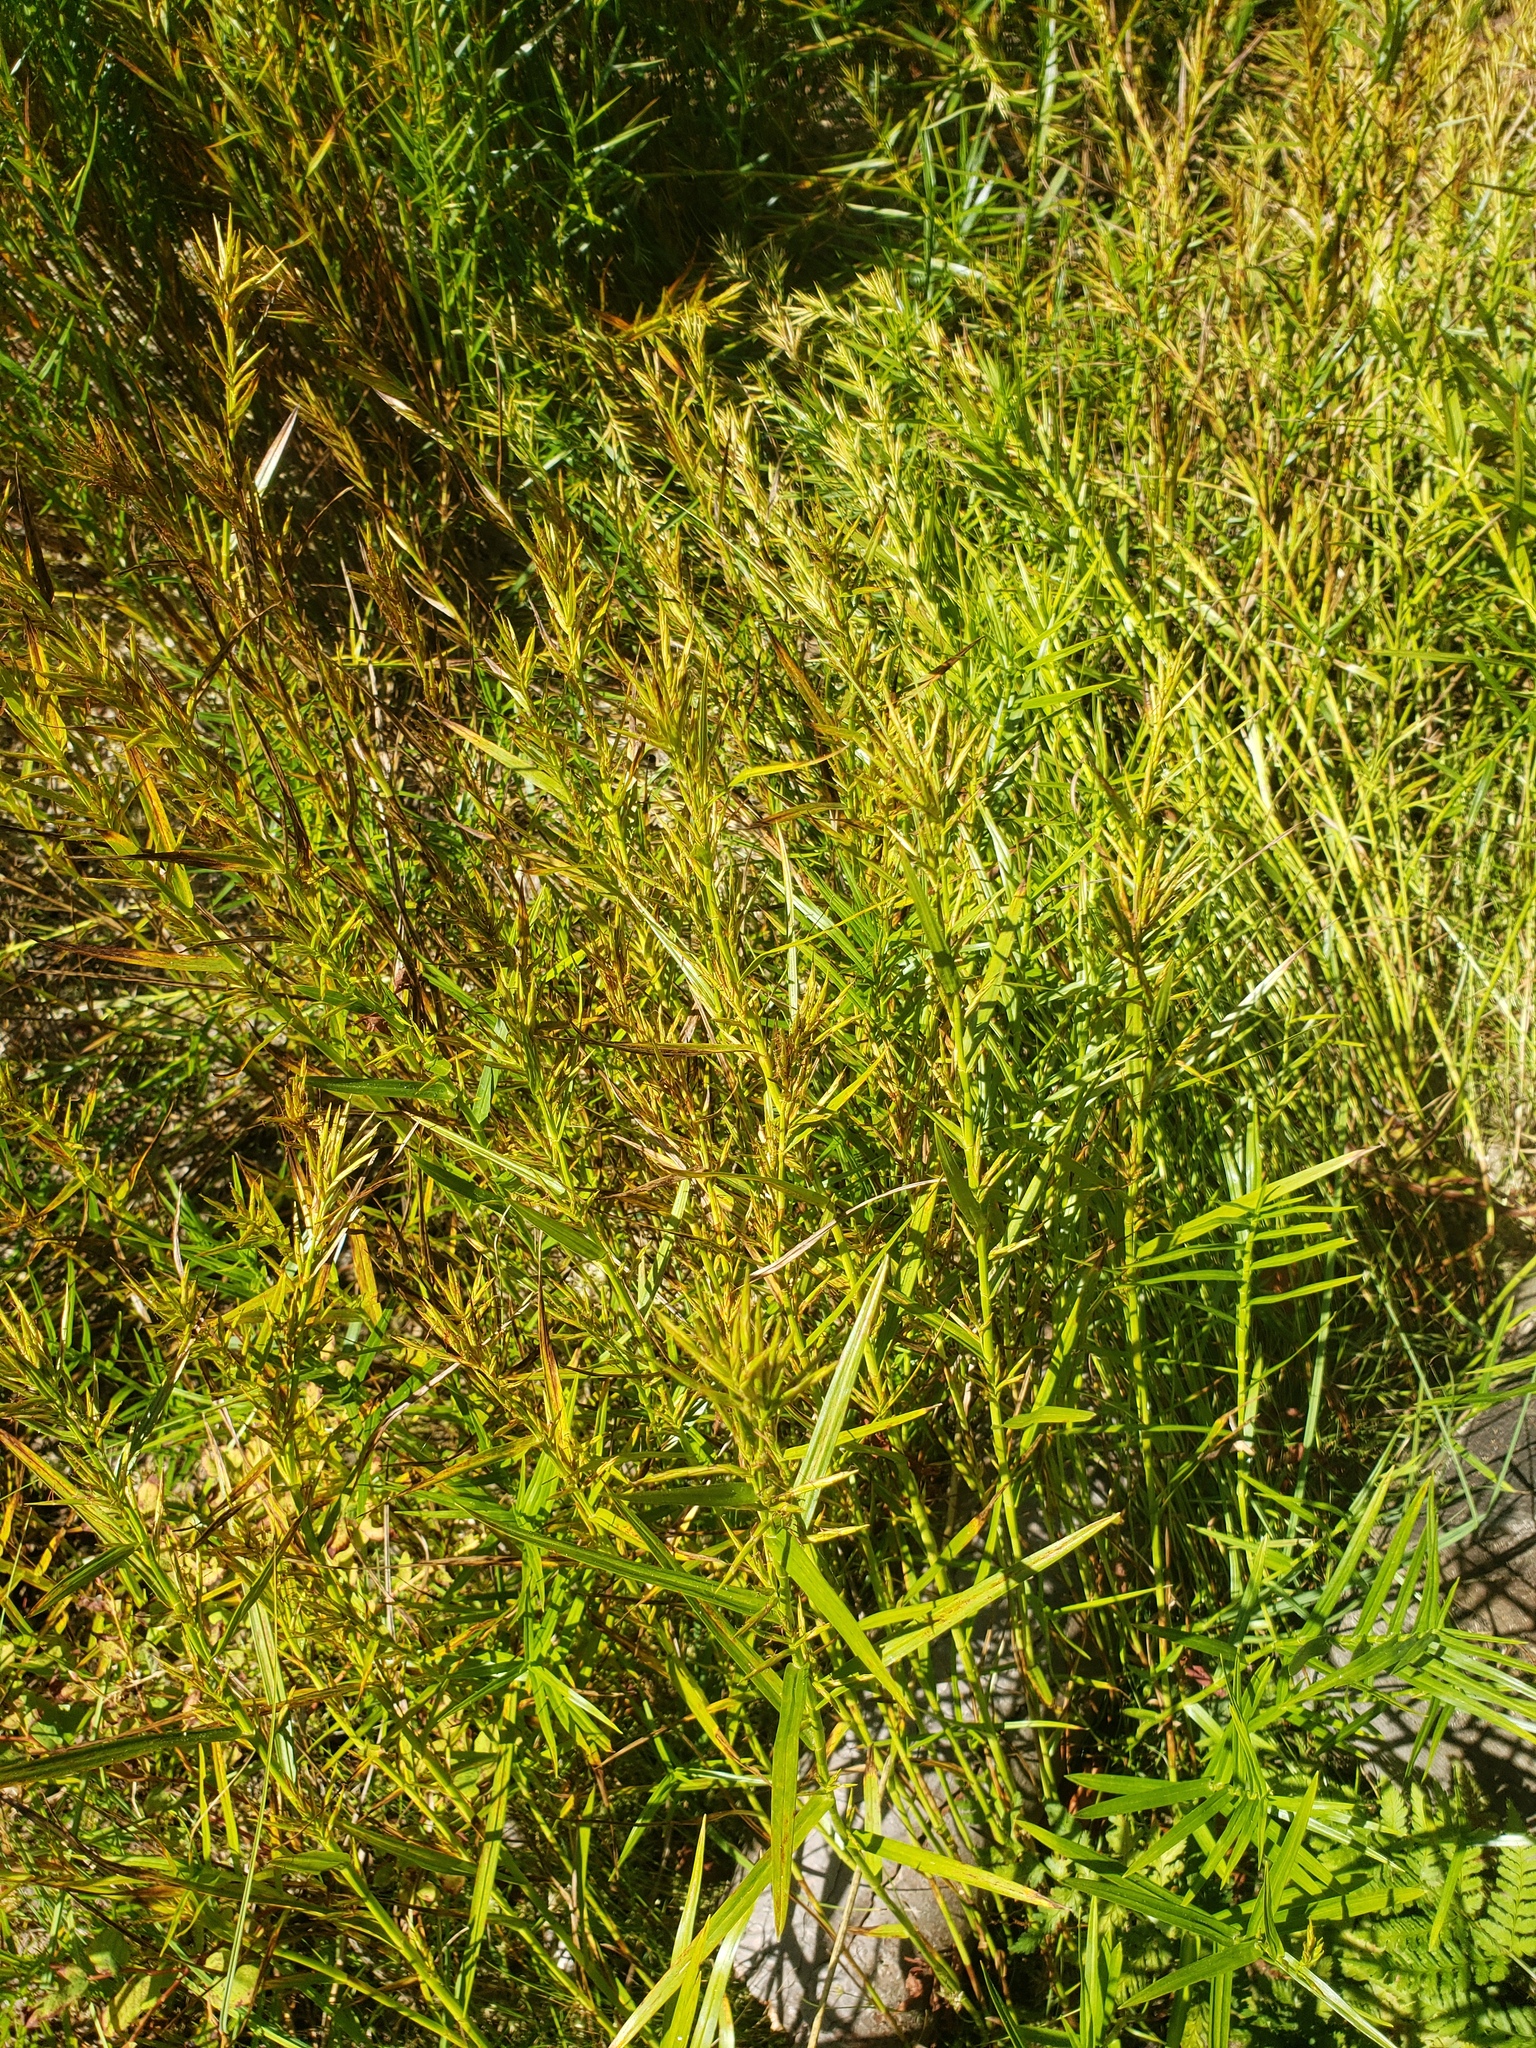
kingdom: Plantae
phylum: Tracheophyta
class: Liliopsida
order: Poales
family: Cyperaceae
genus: Dulichium
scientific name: Dulichium arundinaceum
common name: Three-way sedge
